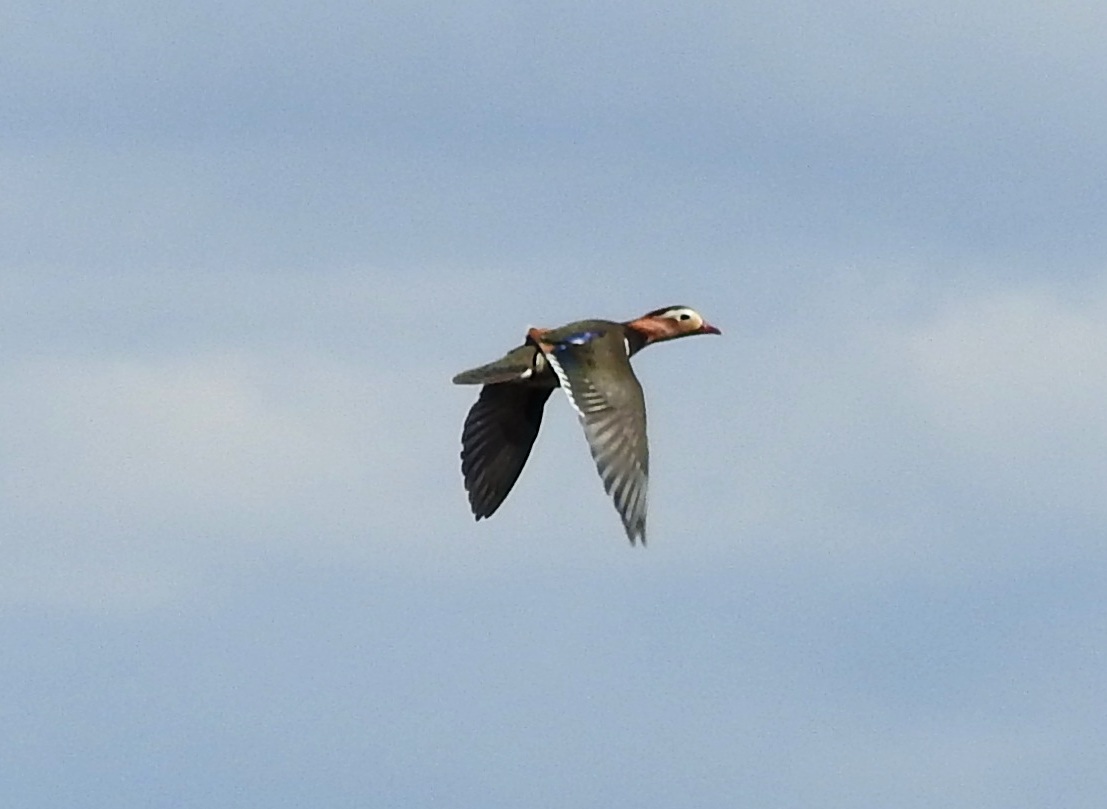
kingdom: Animalia
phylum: Chordata
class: Aves
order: Anseriformes
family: Anatidae
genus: Aix
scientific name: Aix galericulata
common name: Mandarin duck
